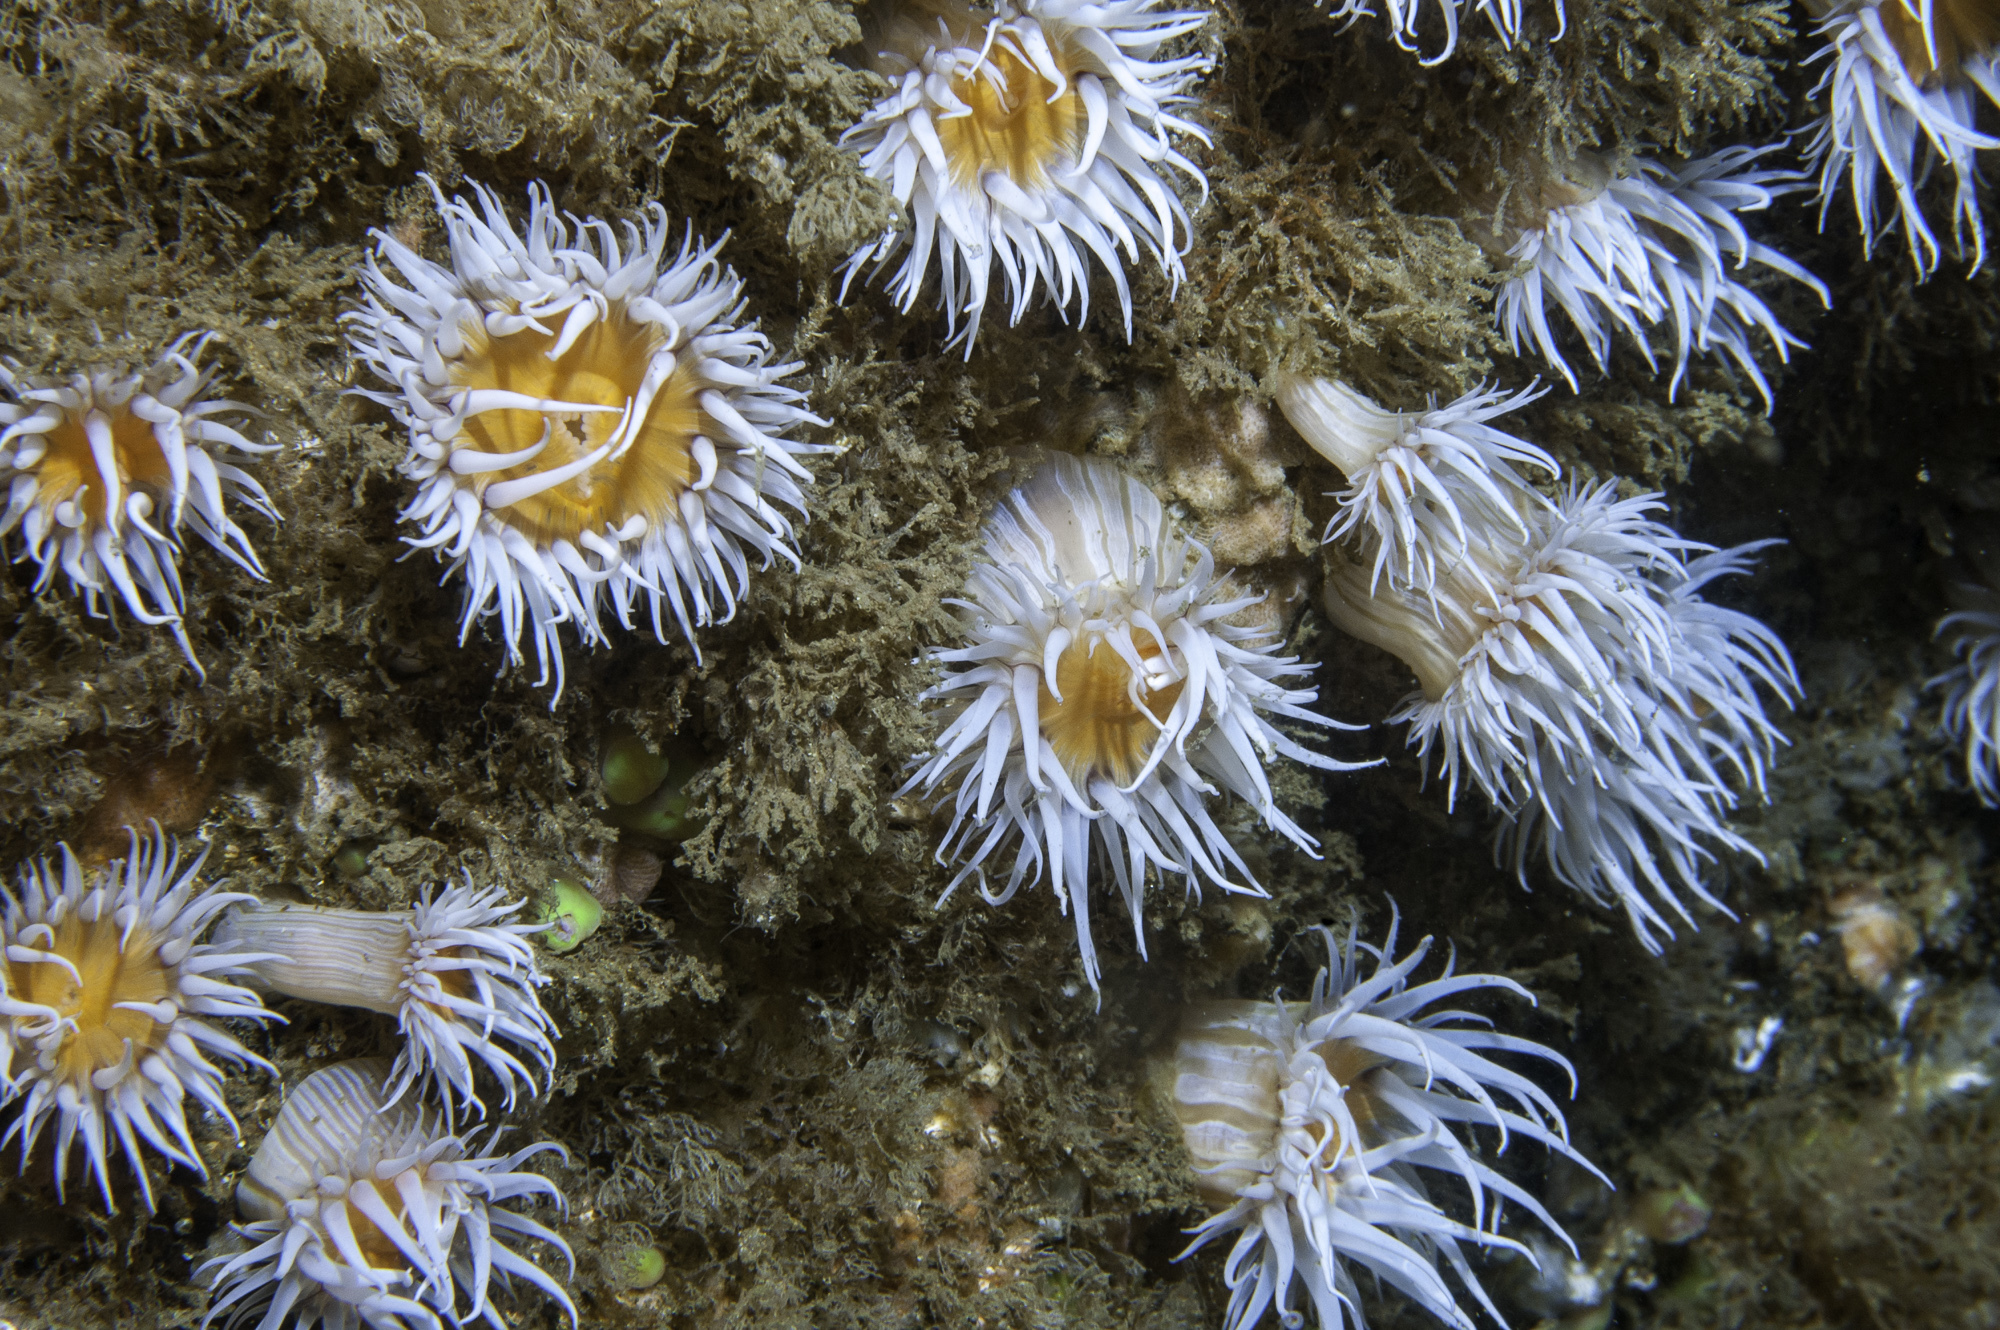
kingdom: Animalia
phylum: Cnidaria
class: Anthozoa
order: Actiniaria
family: Sagartiidae
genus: Actinothoe
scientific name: Actinothoe sphyrodeta
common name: Sandalled anemone
